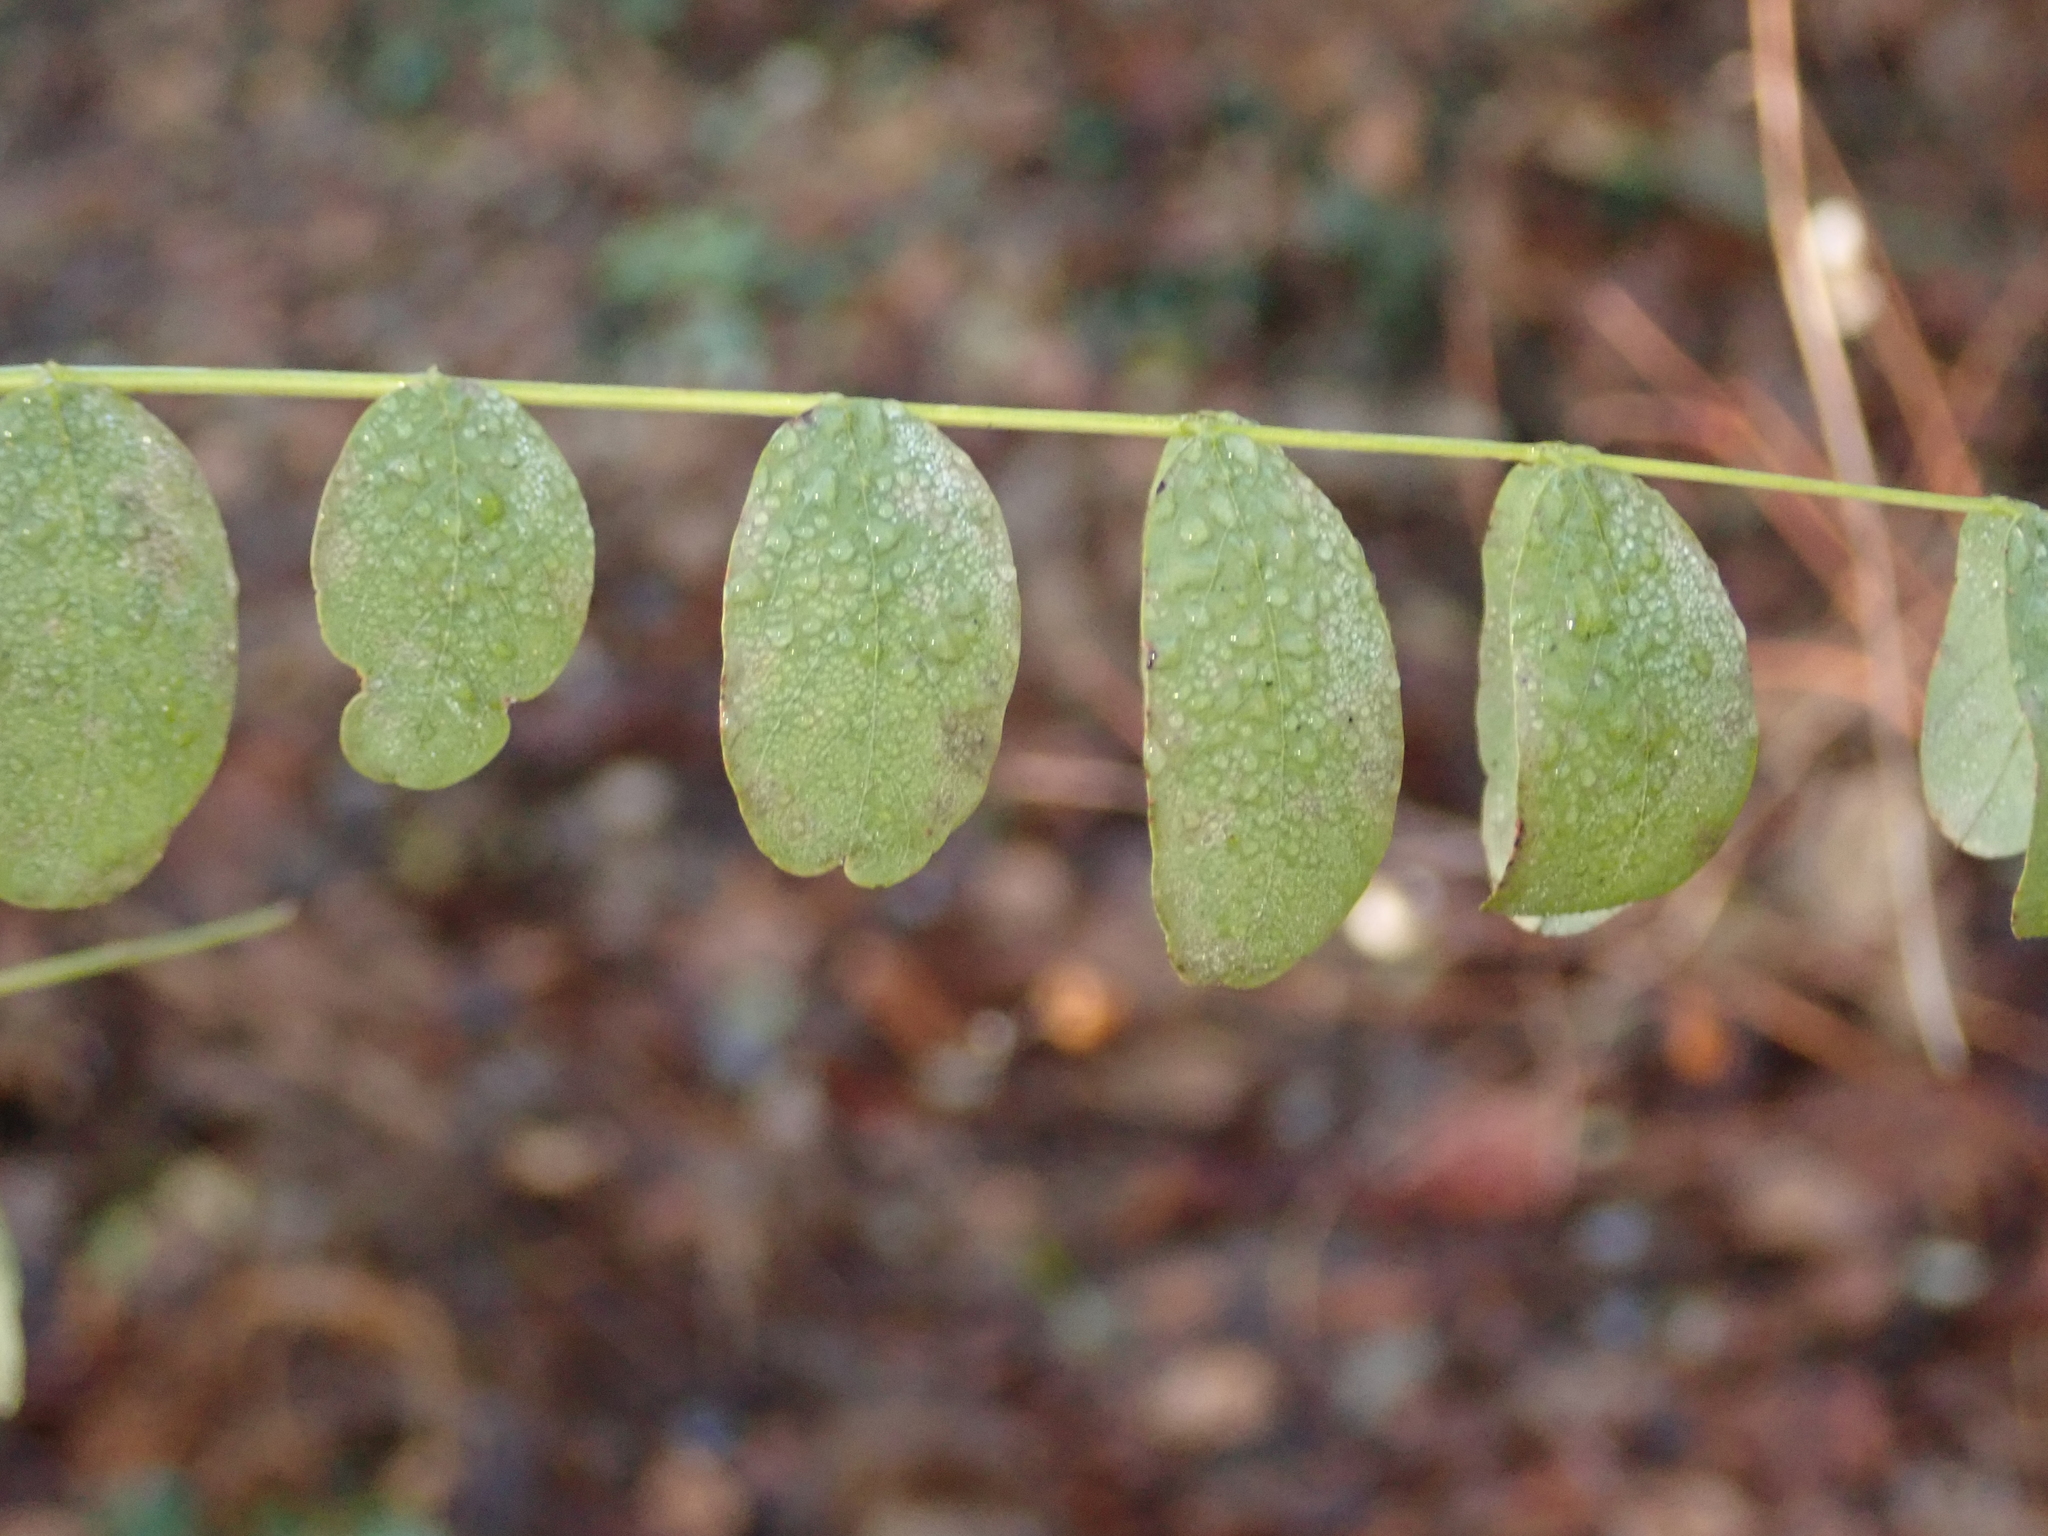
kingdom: Plantae
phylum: Tracheophyta
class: Magnoliopsida
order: Fabales
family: Fabaceae
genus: Robinia
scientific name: Robinia pseudoacacia
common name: Black locust
